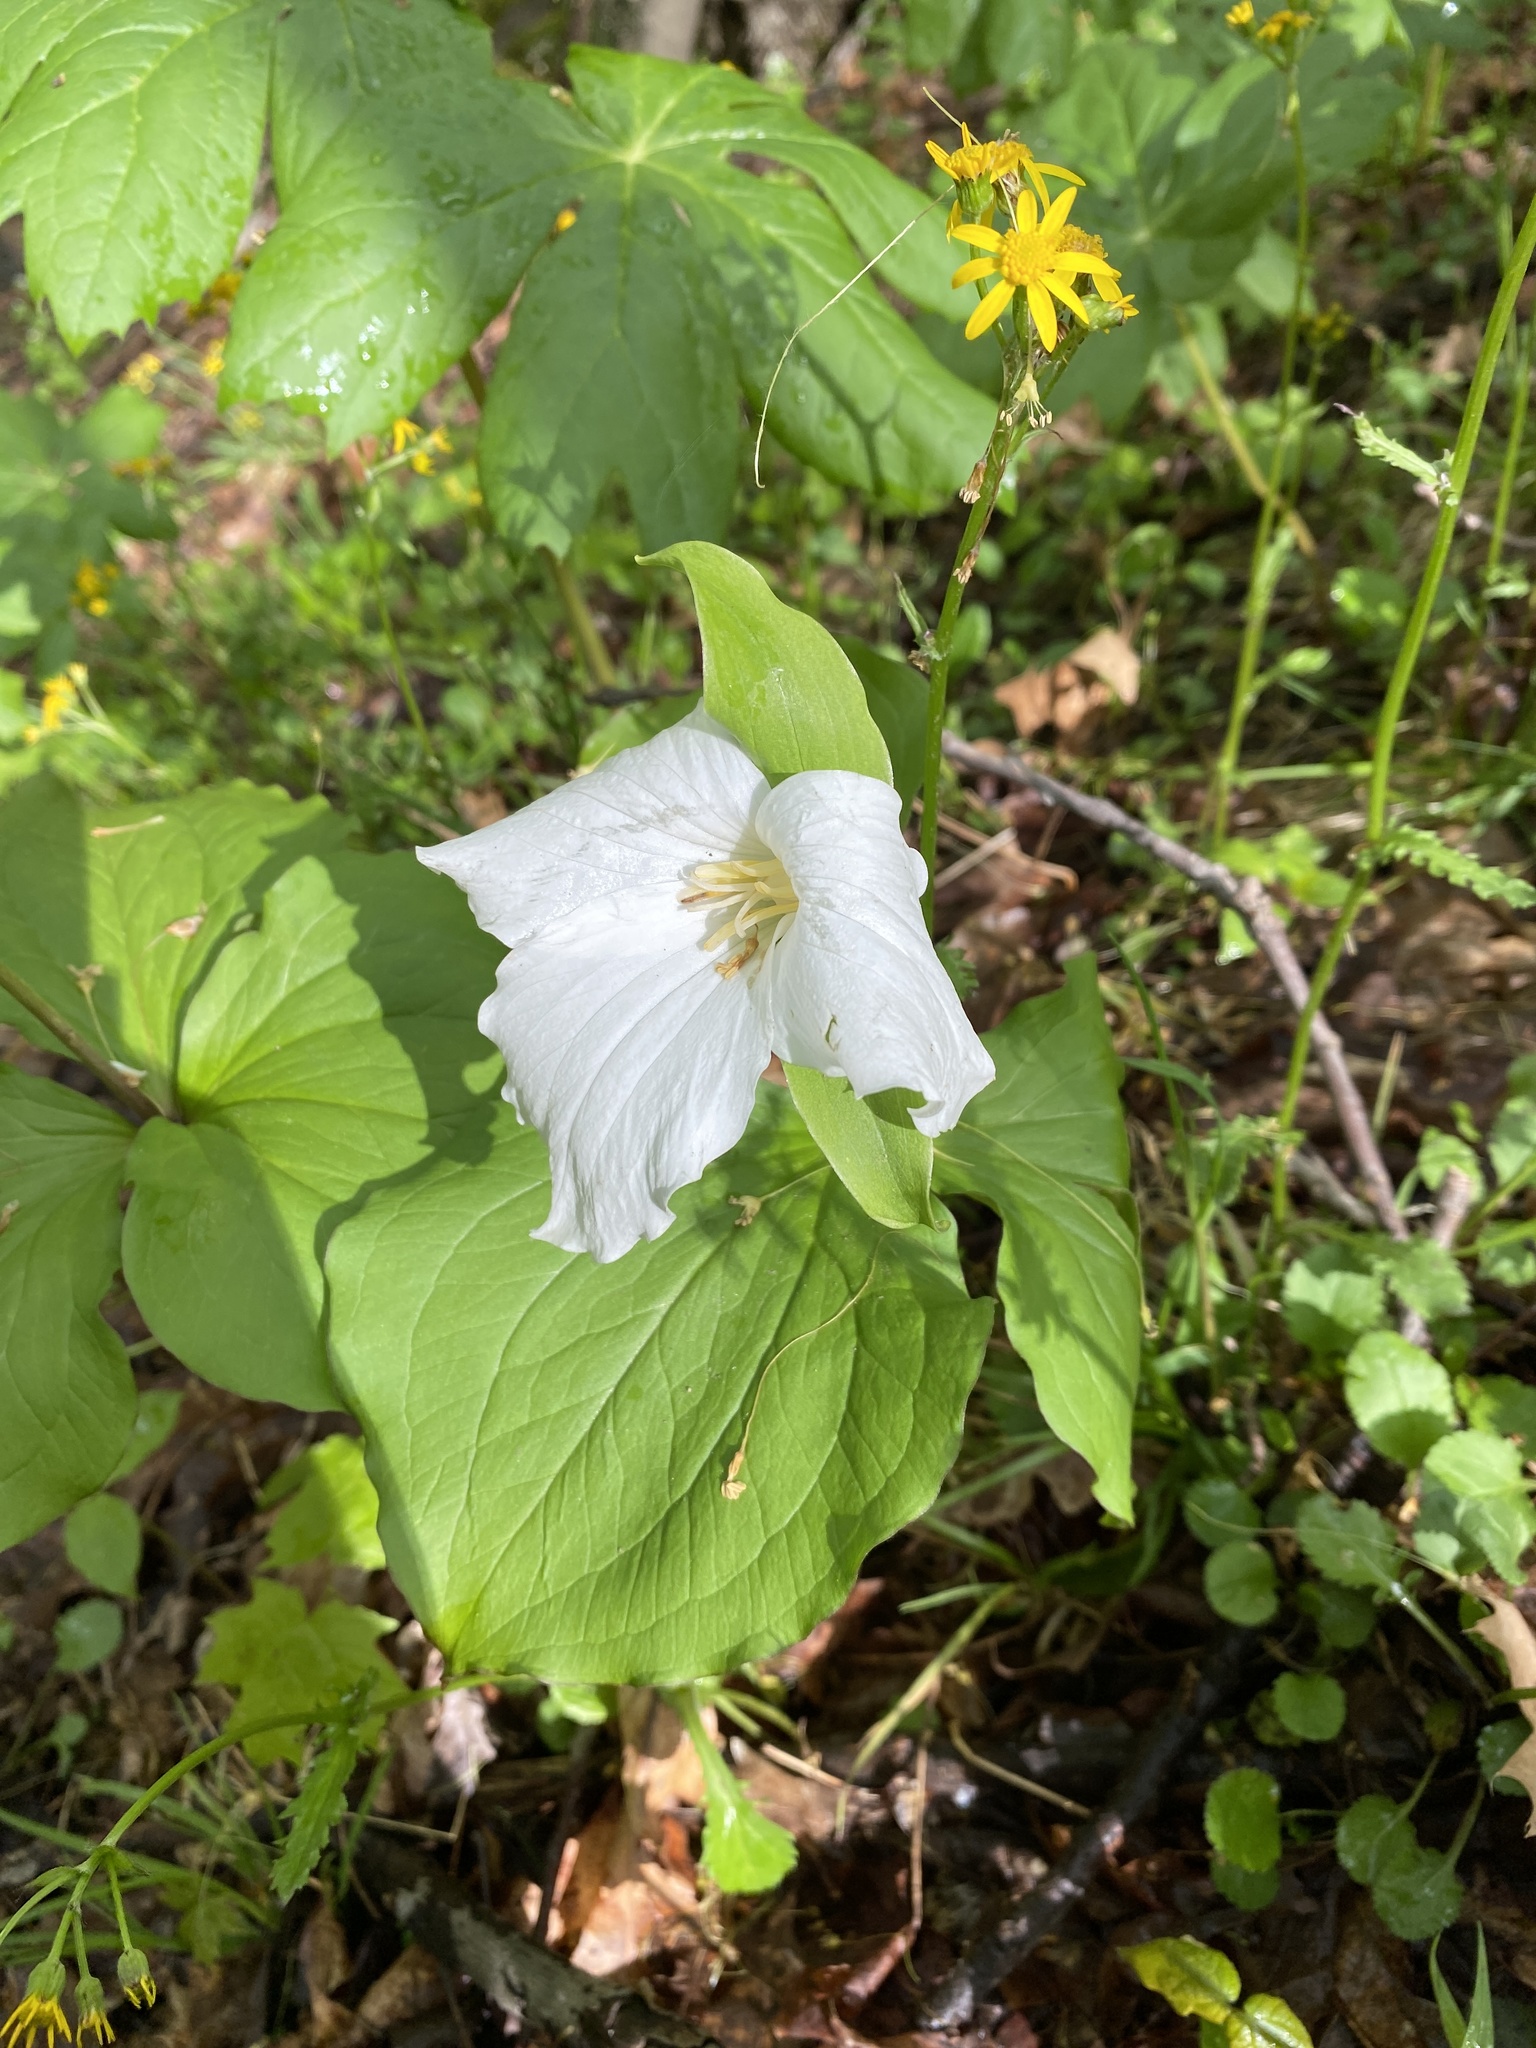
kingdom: Plantae
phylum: Tracheophyta
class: Liliopsida
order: Liliales
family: Melanthiaceae
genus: Trillium
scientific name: Trillium grandiflorum
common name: Great white trillium
